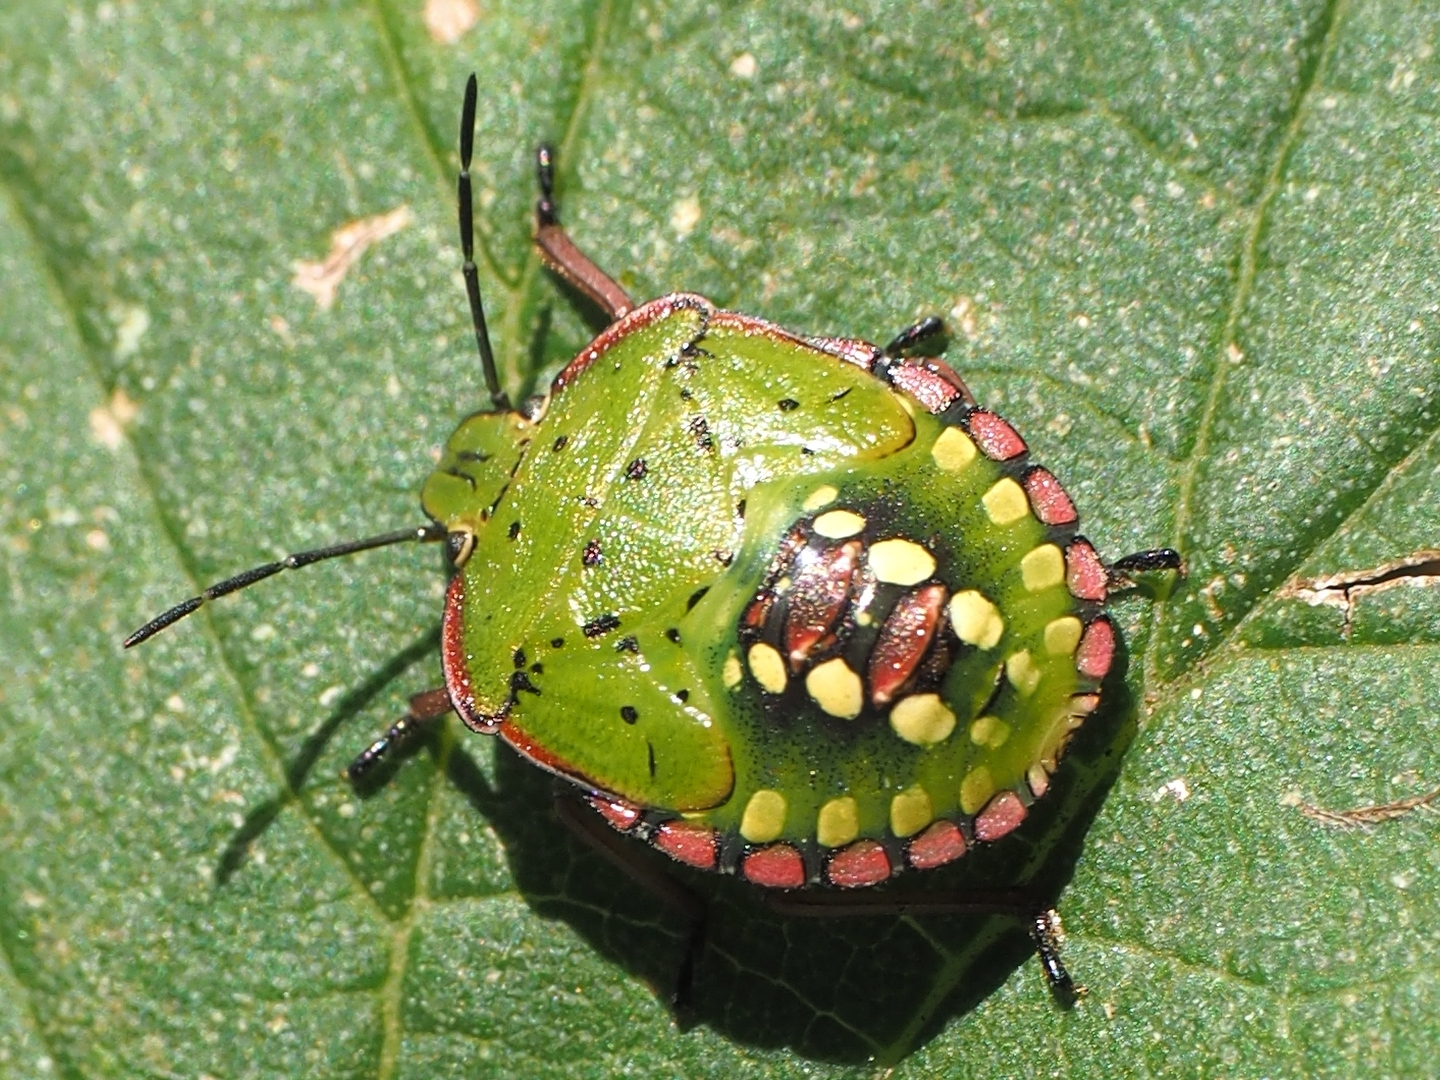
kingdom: Animalia
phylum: Arthropoda
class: Insecta
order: Hemiptera
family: Pentatomidae
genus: Nezara
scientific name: Nezara viridula
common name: Southern green stink bug
